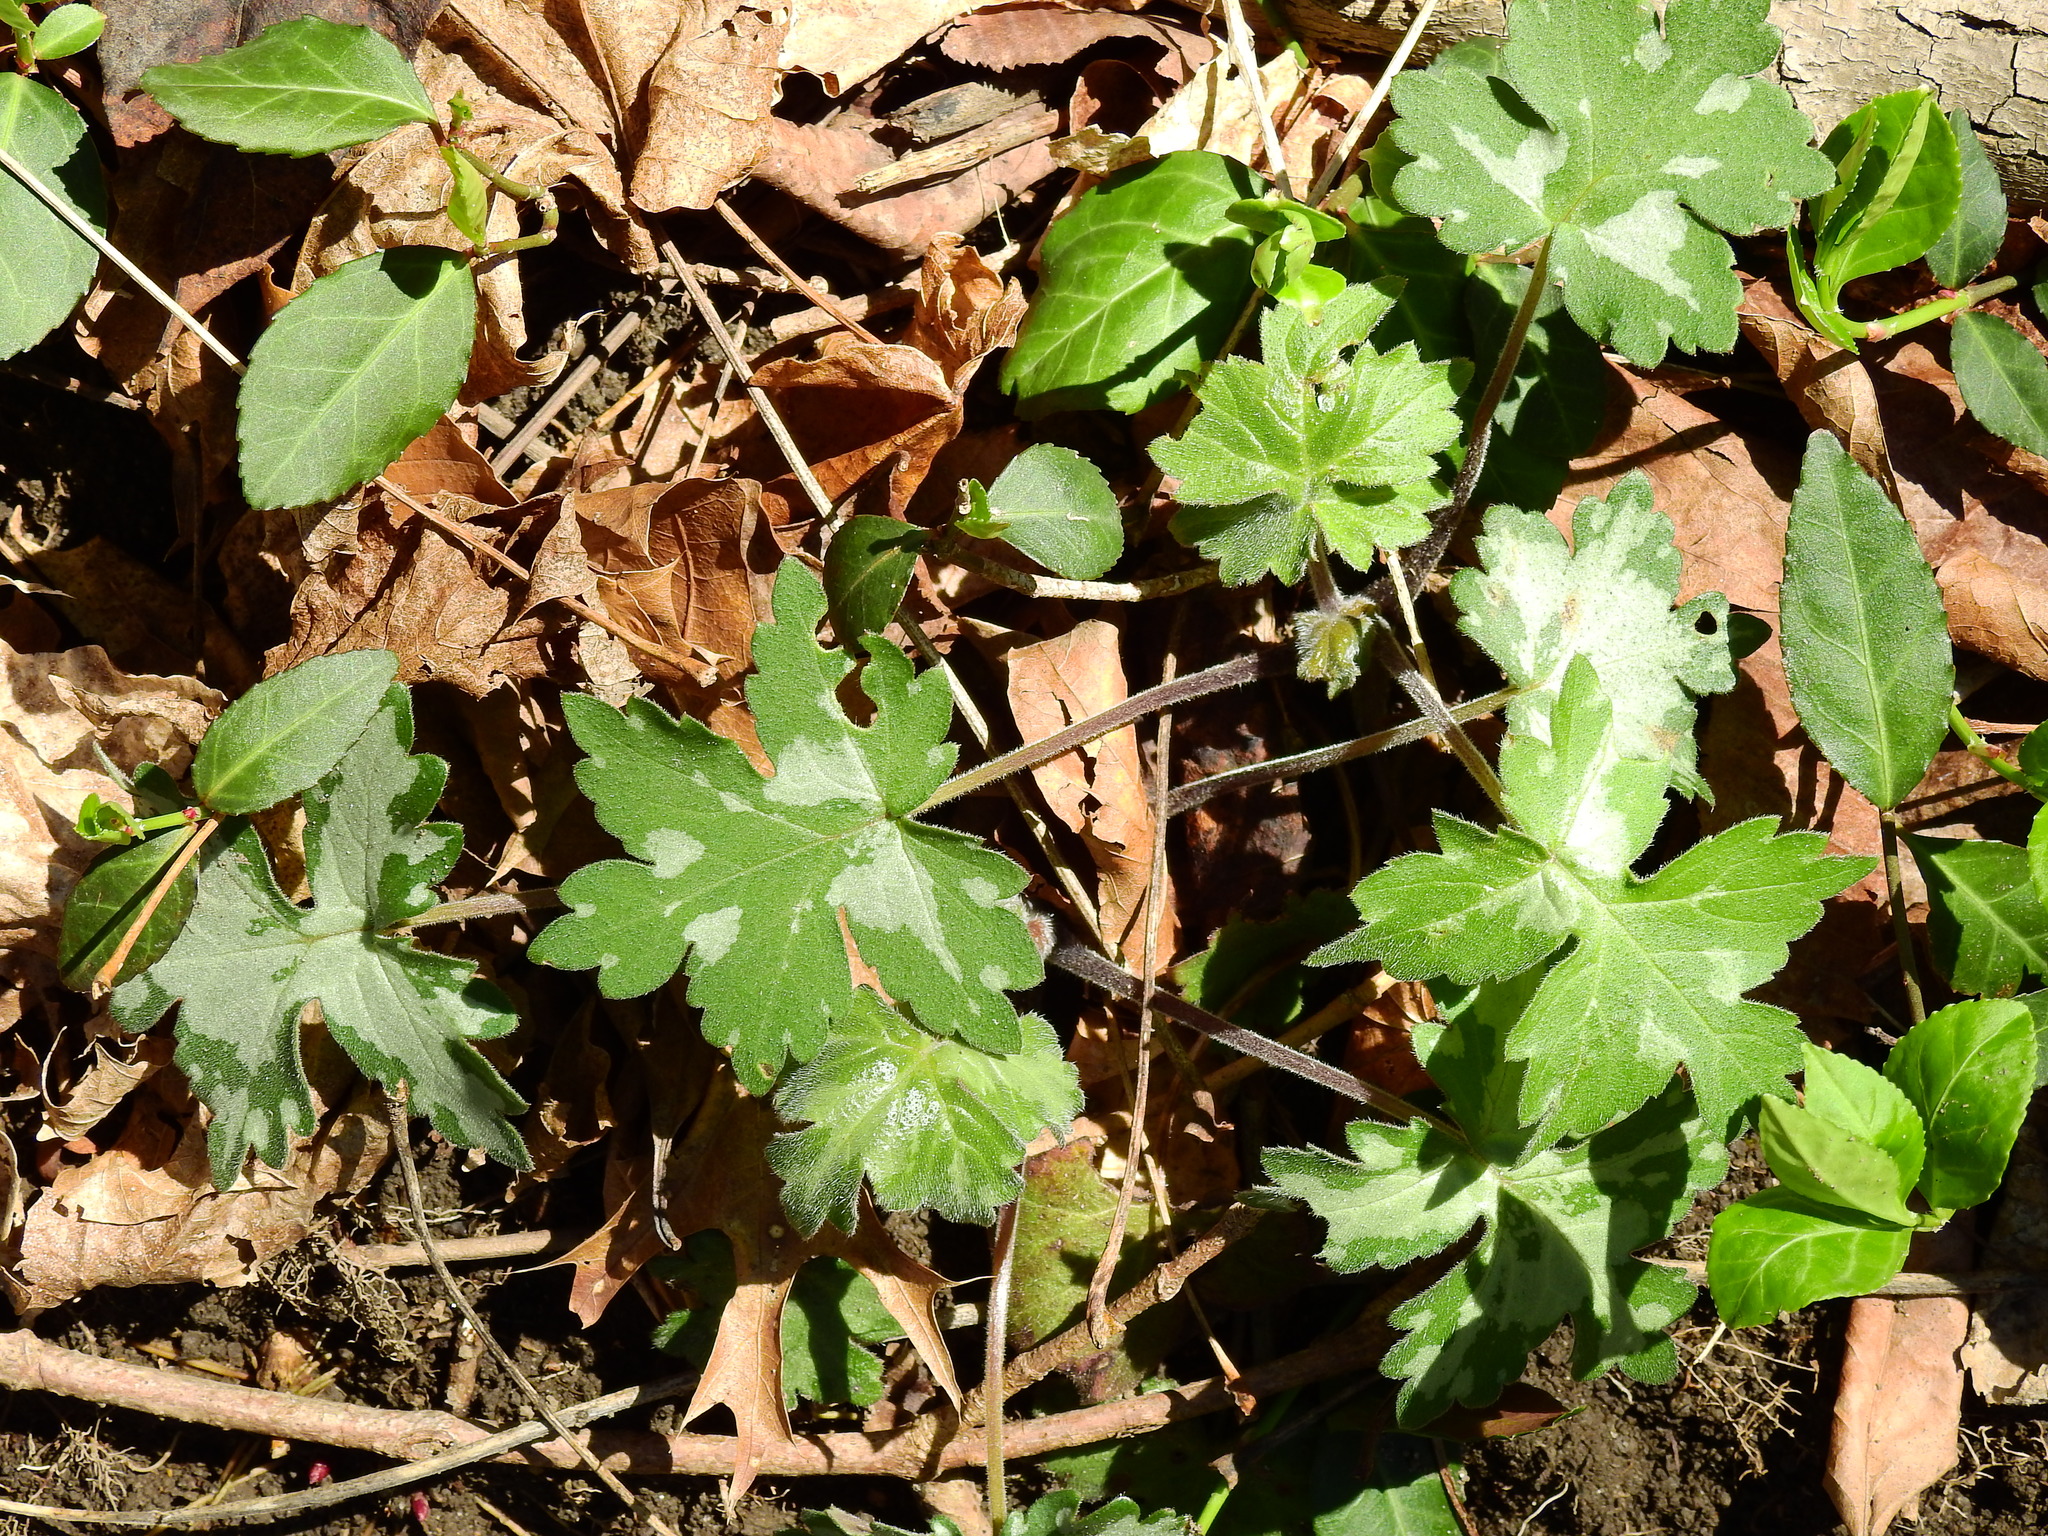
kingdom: Plantae
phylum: Tracheophyta
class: Magnoliopsida
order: Boraginales
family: Hydrophyllaceae
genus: Hydrophyllum
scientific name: Hydrophyllum appendiculatum
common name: Appendaged waterleaf
